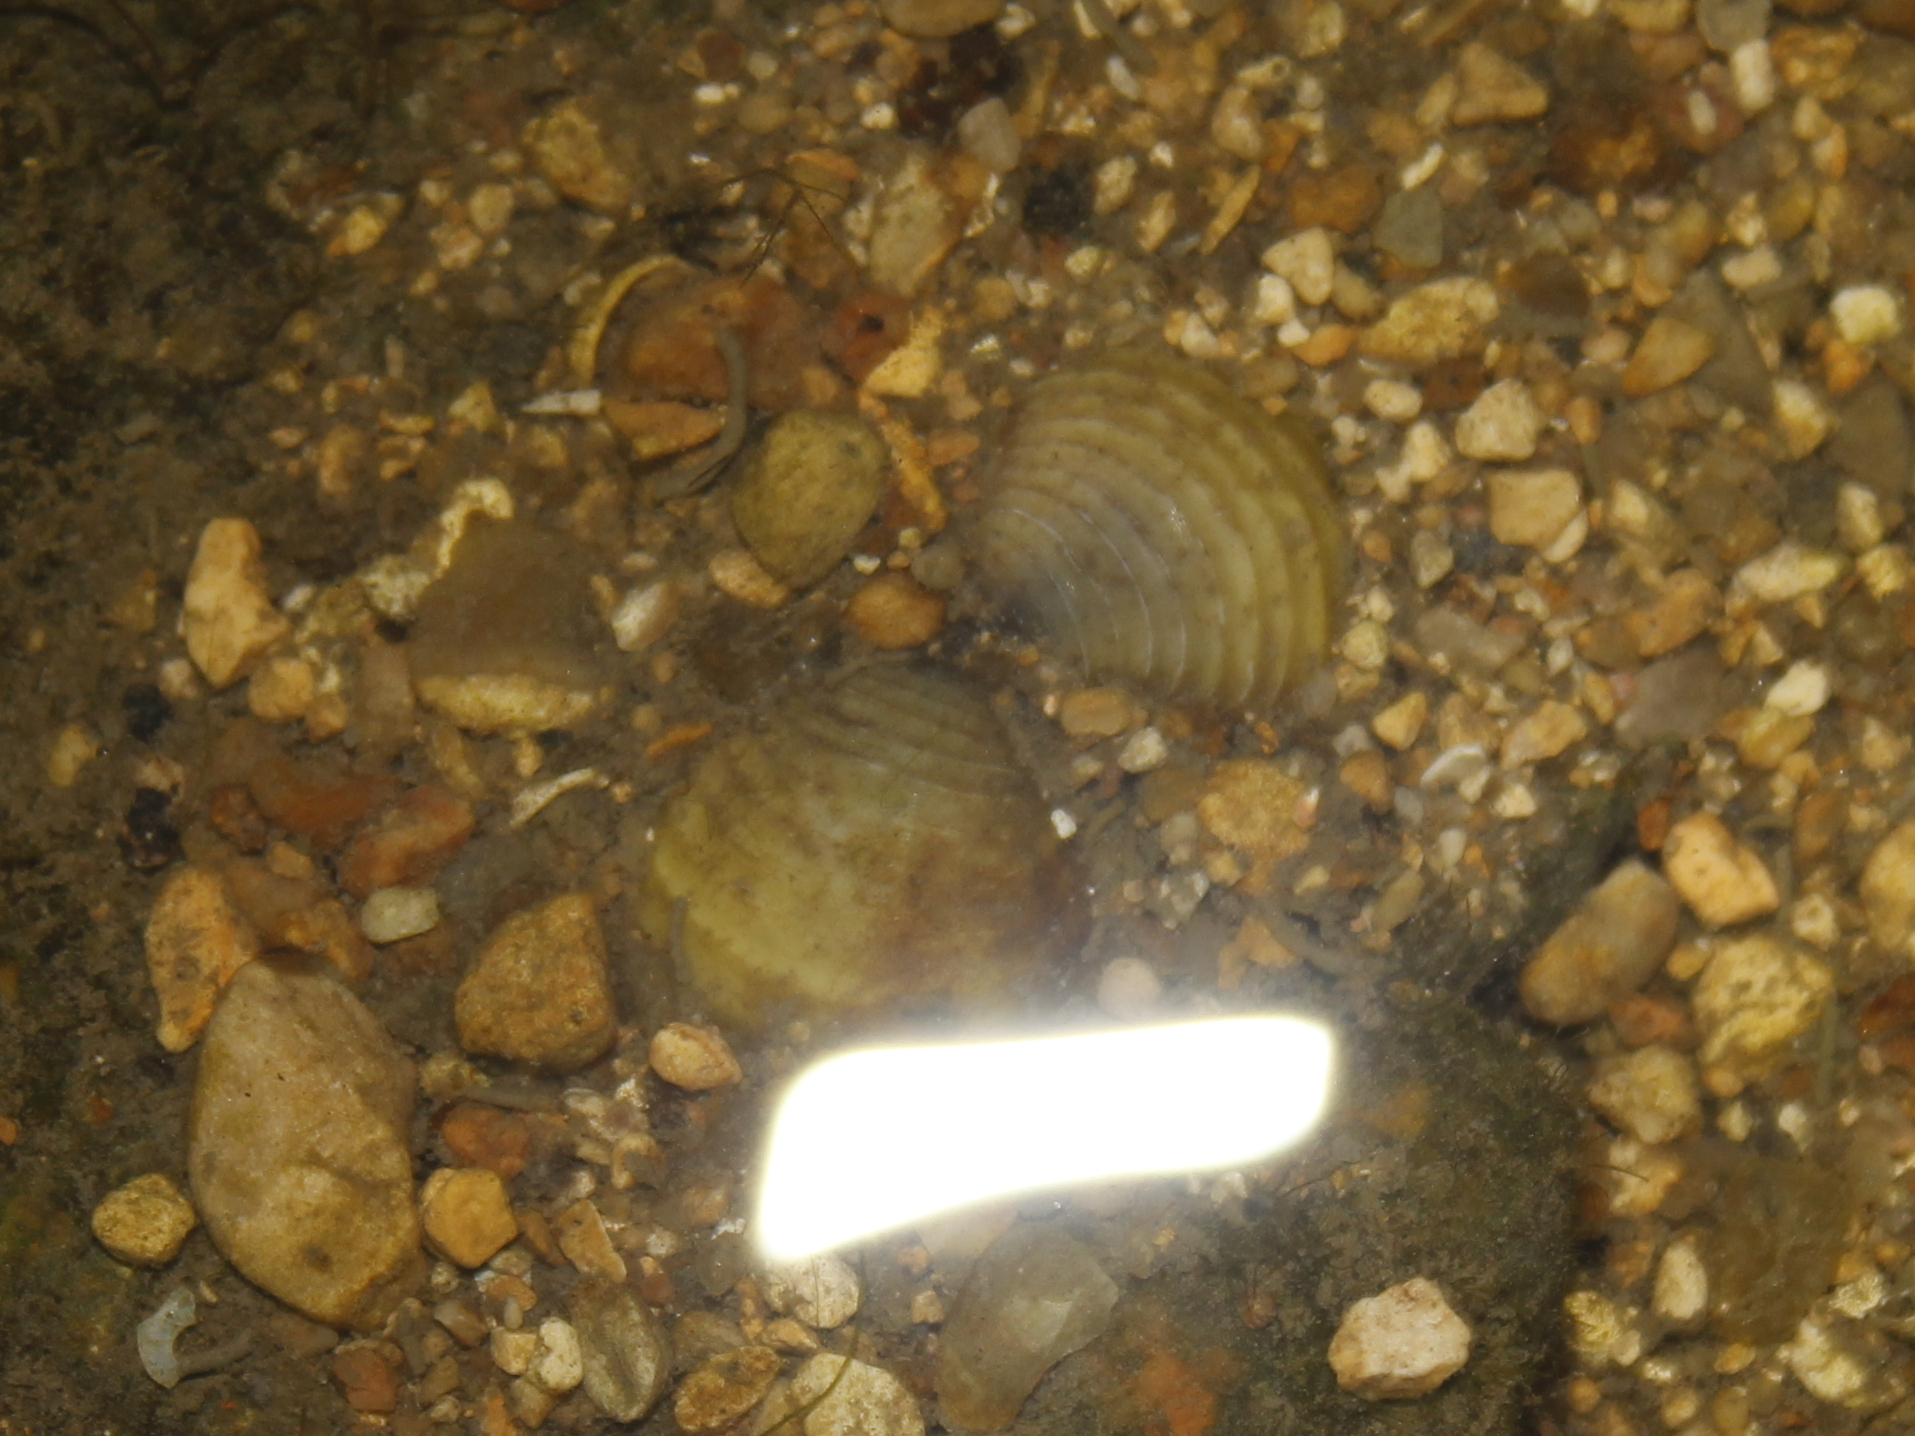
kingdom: Animalia
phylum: Mollusca
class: Bivalvia
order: Venerida
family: Cyrenidae
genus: Corbicula
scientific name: Corbicula fluminea
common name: Asian clam
